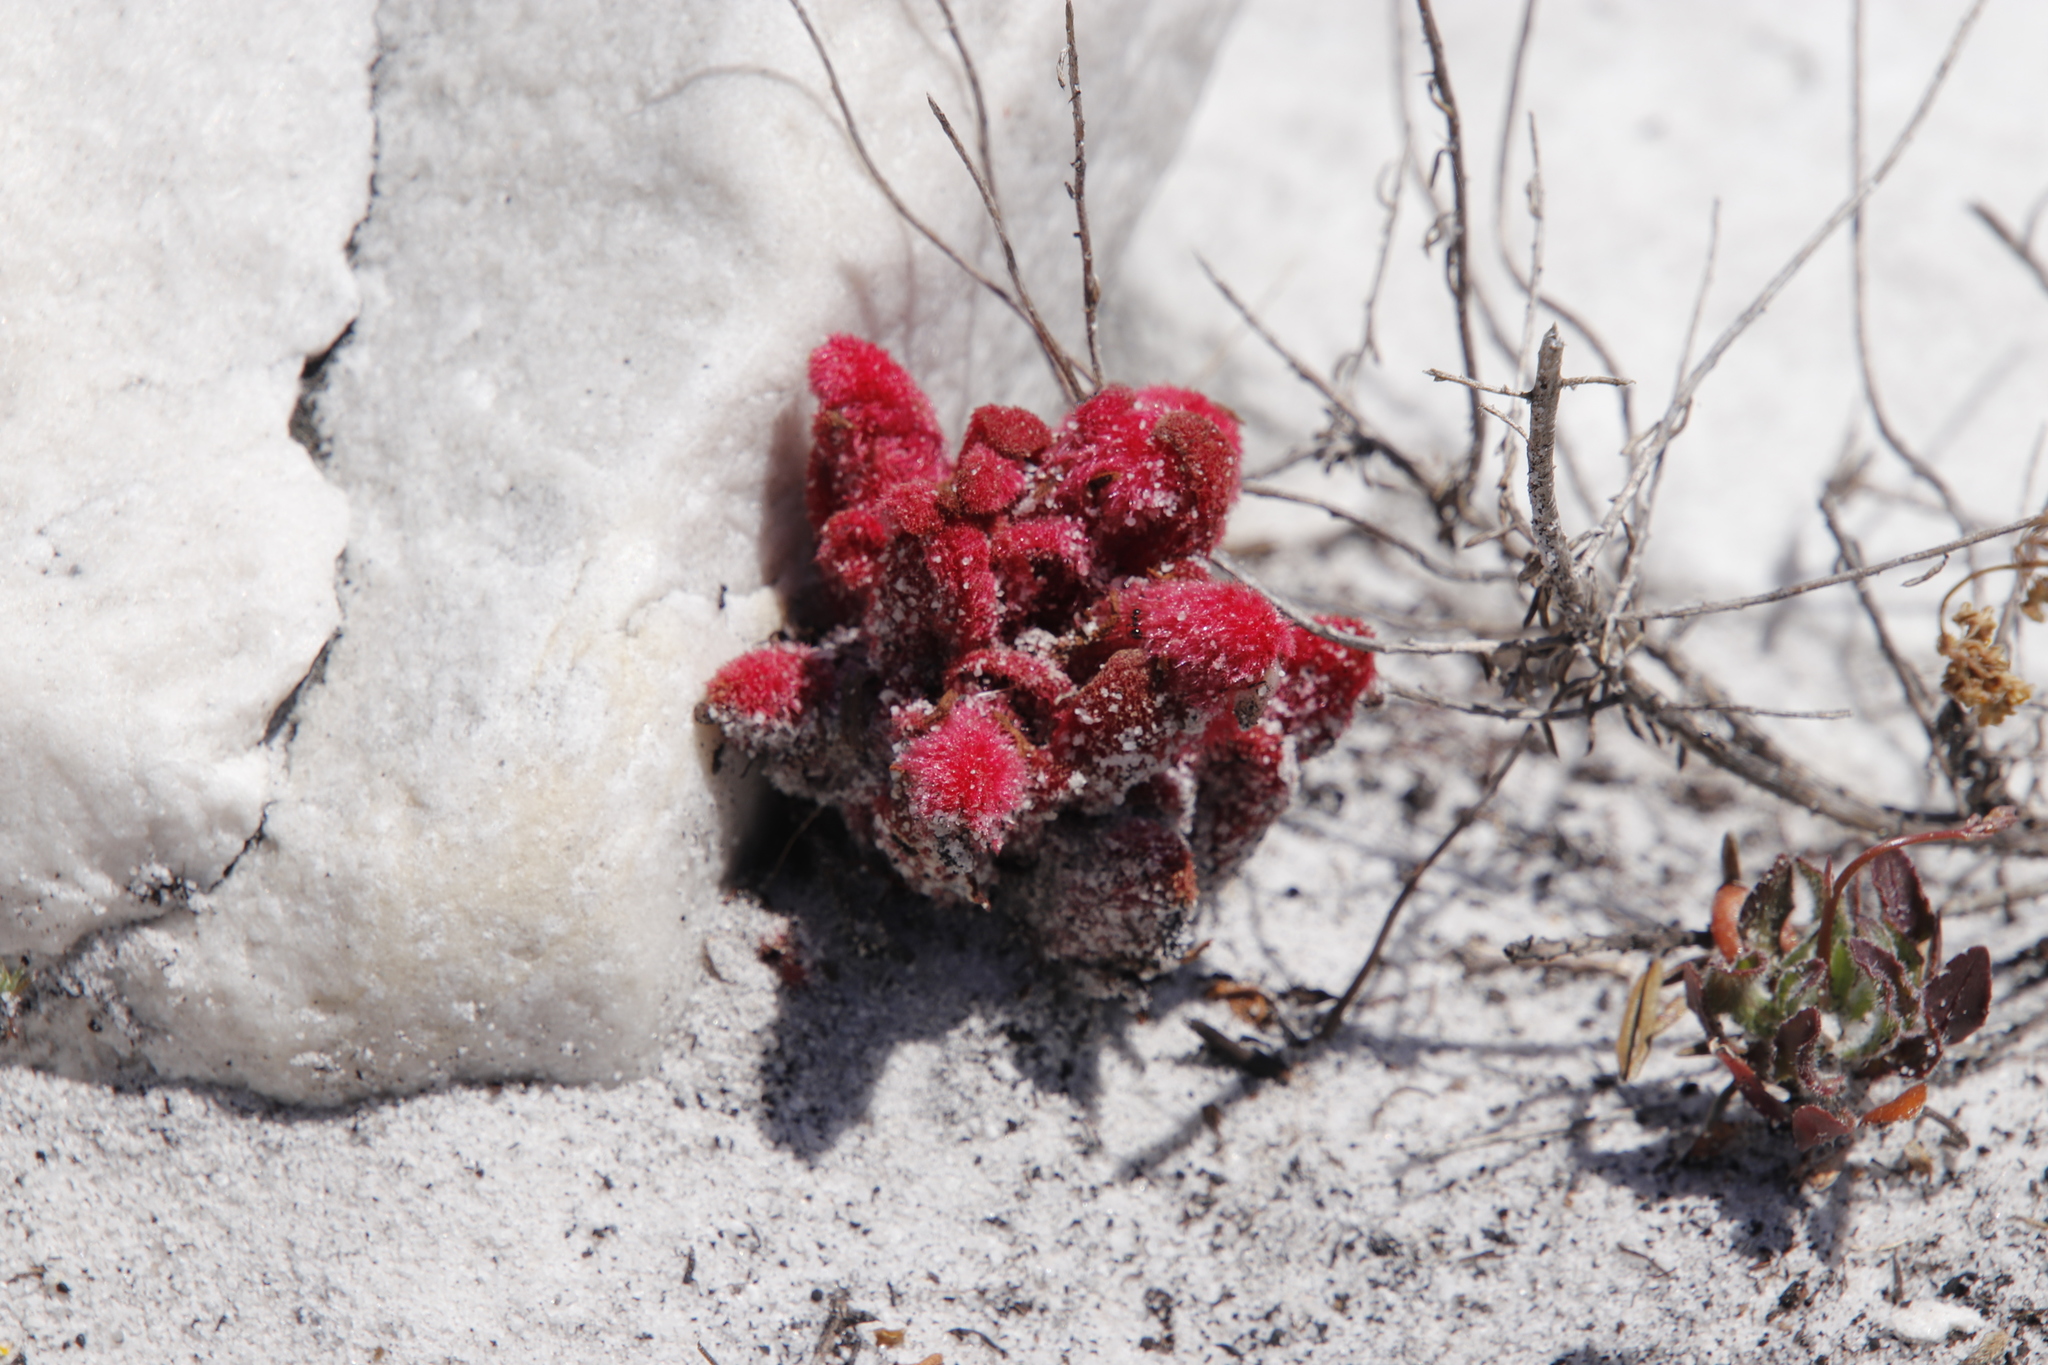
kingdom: Plantae
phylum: Tracheophyta
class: Magnoliopsida
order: Lamiales
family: Orobanchaceae
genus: Hyobanche
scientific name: Hyobanche sanguinea
